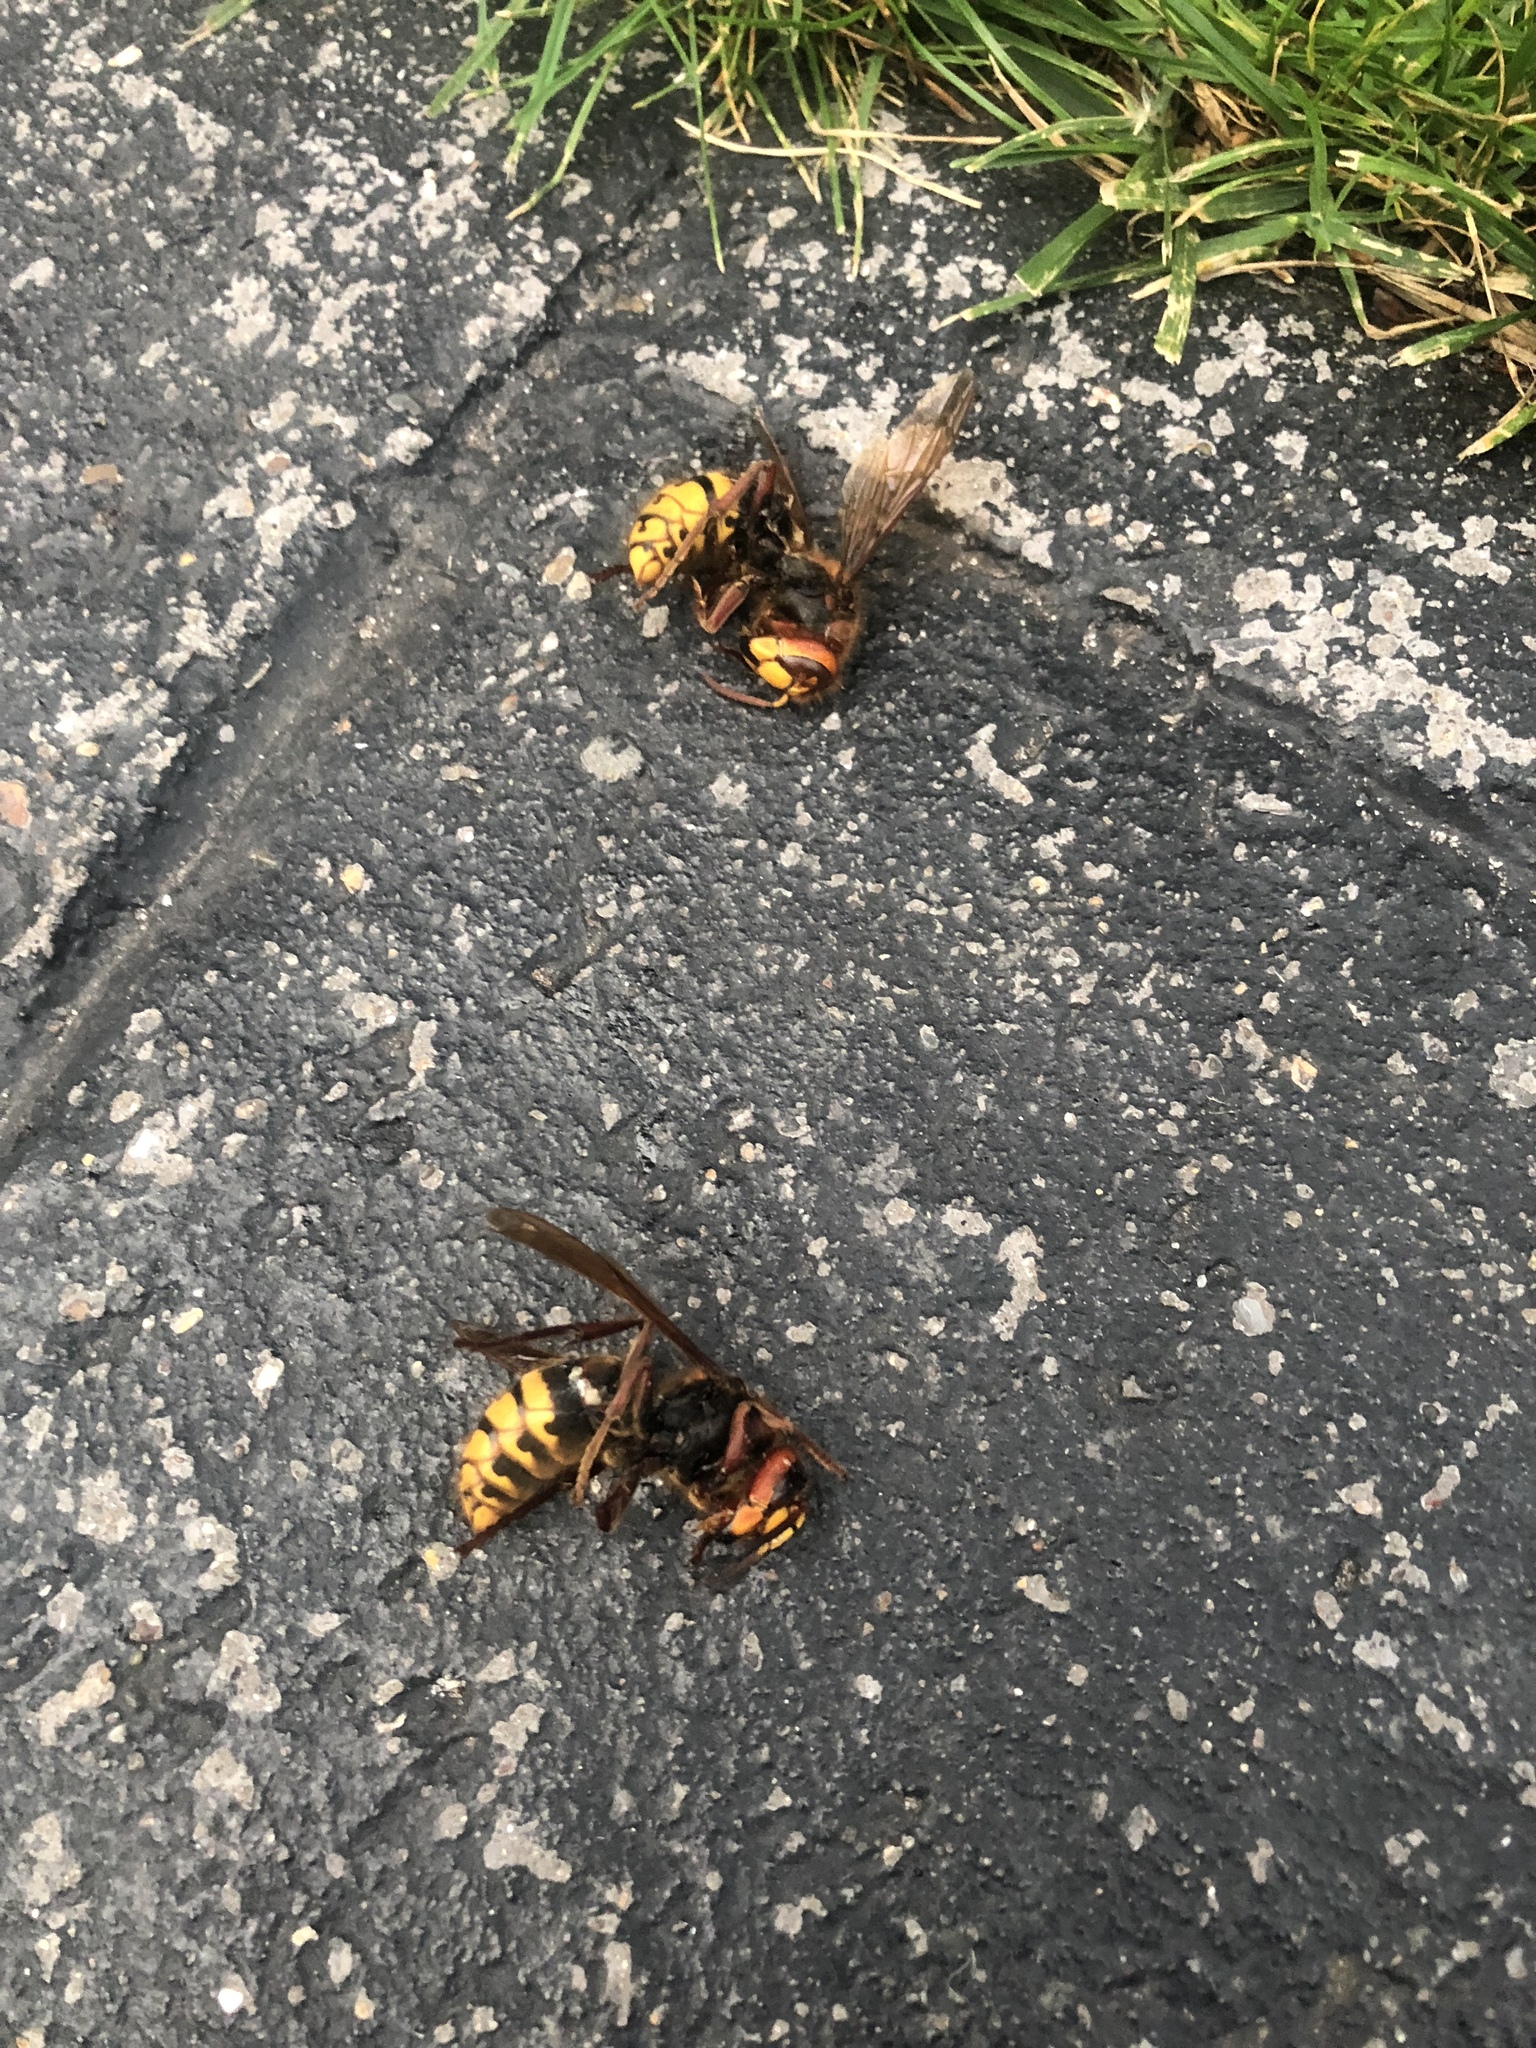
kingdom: Animalia
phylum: Arthropoda
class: Insecta
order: Hymenoptera
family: Vespidae
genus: Vespa
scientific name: Vespa crabro
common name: Hornet
